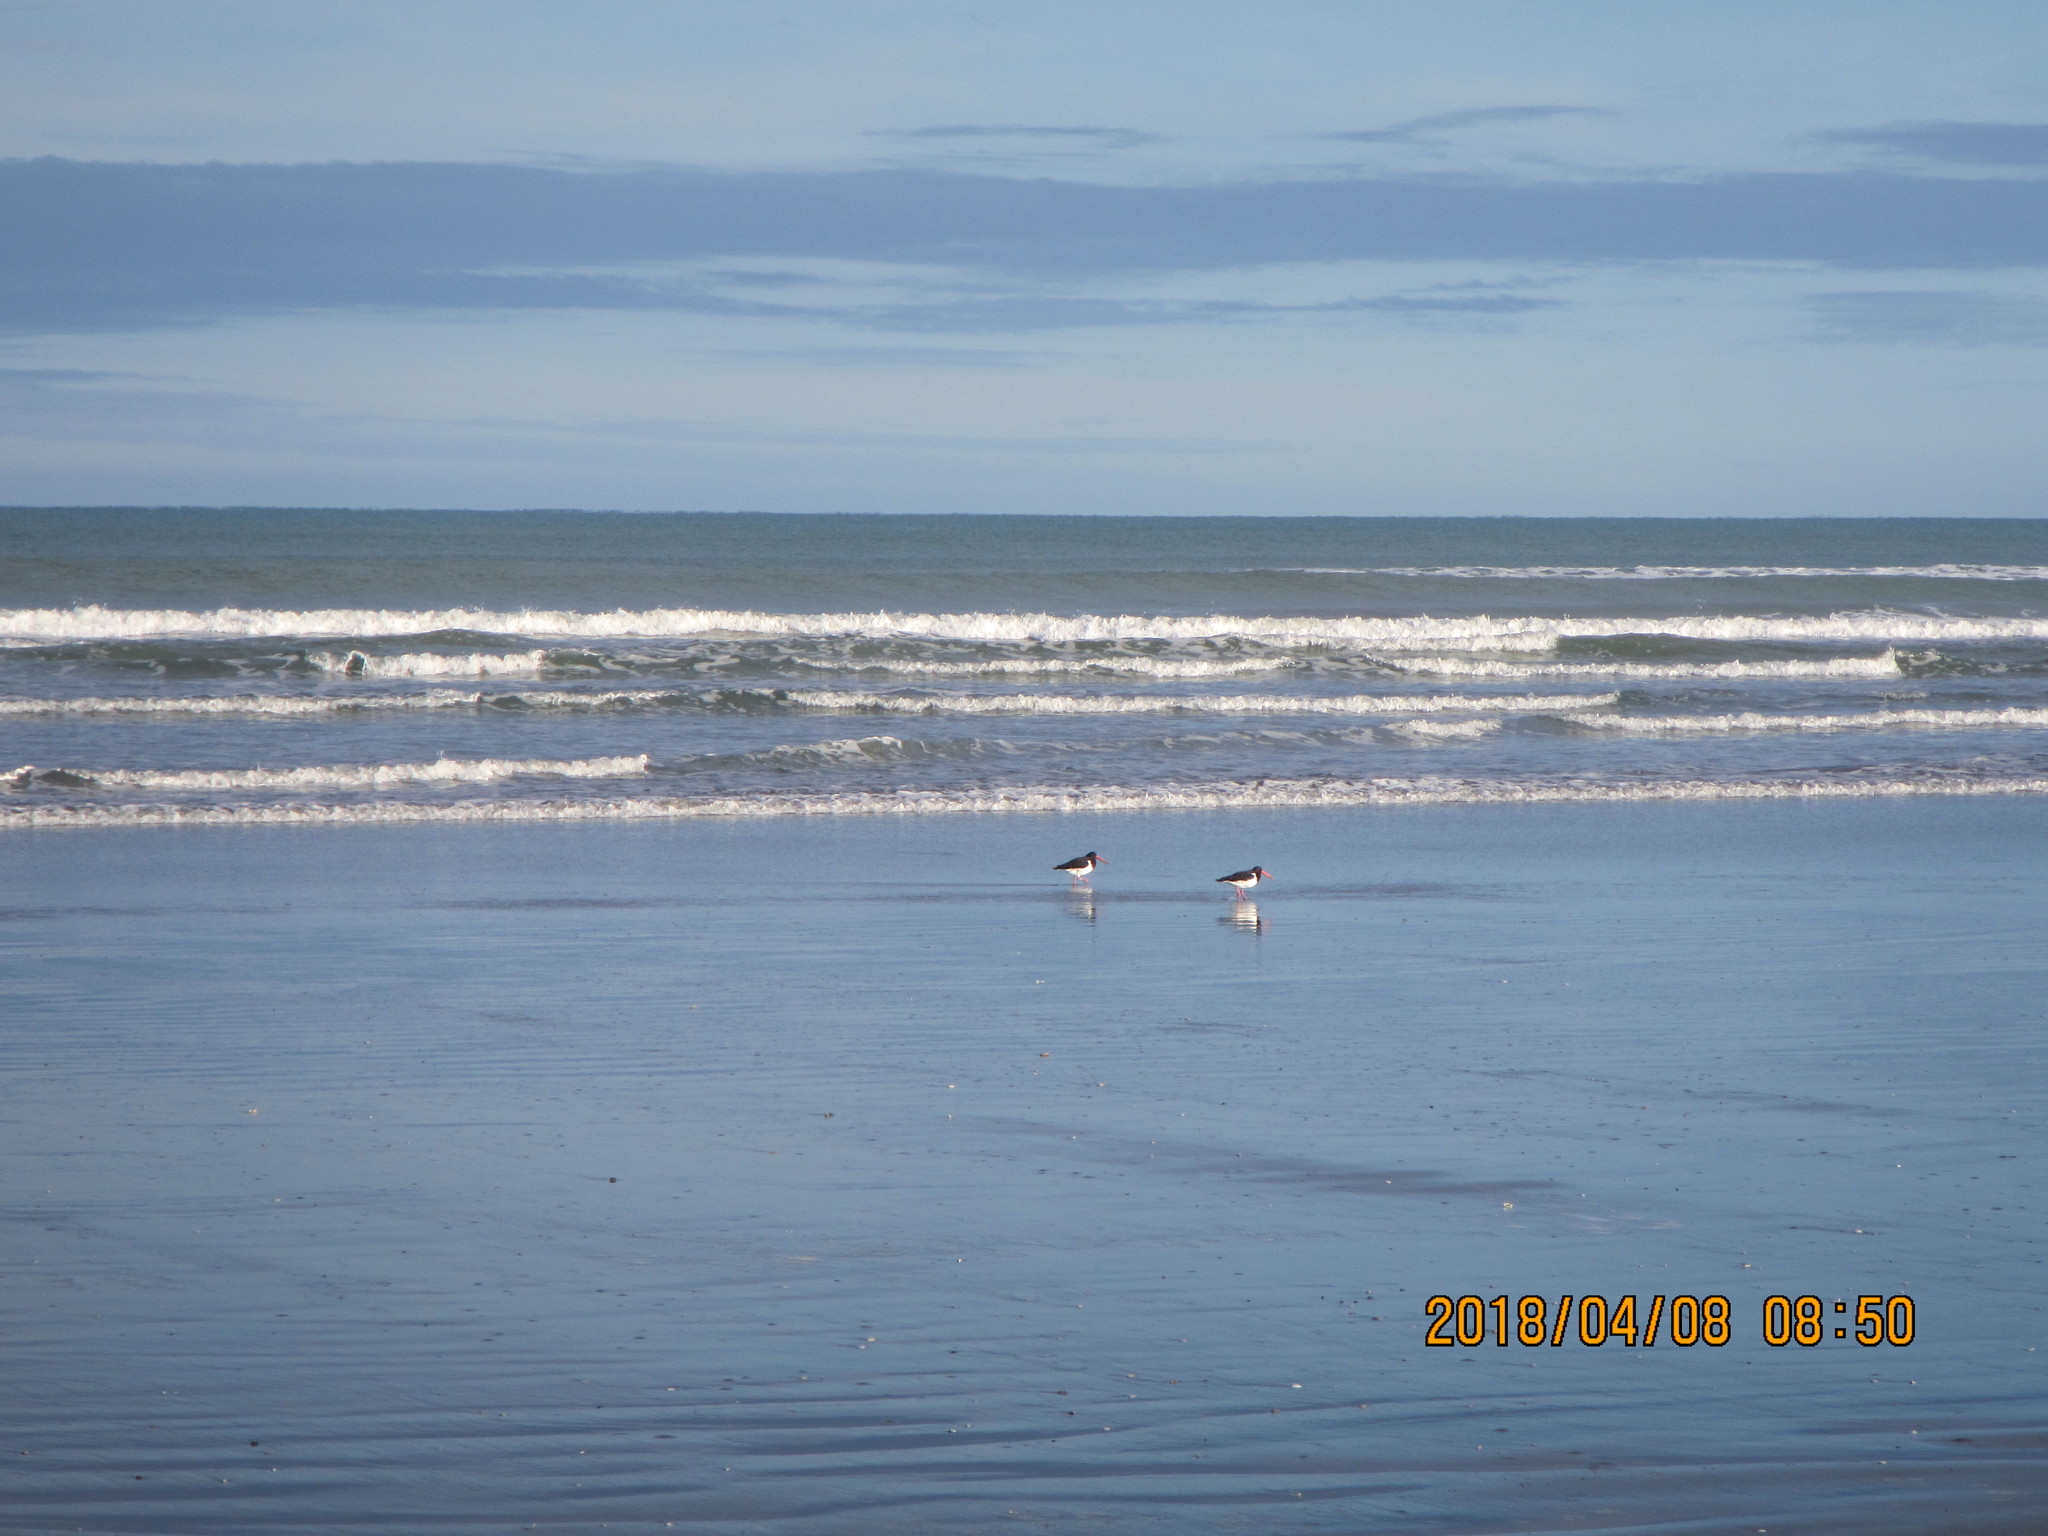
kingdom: Animalia
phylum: Chordata
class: Aves
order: Charadriiformes
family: Haematopodidae
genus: Haematopus
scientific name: Haematopus finschi
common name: South island oystercatcher
